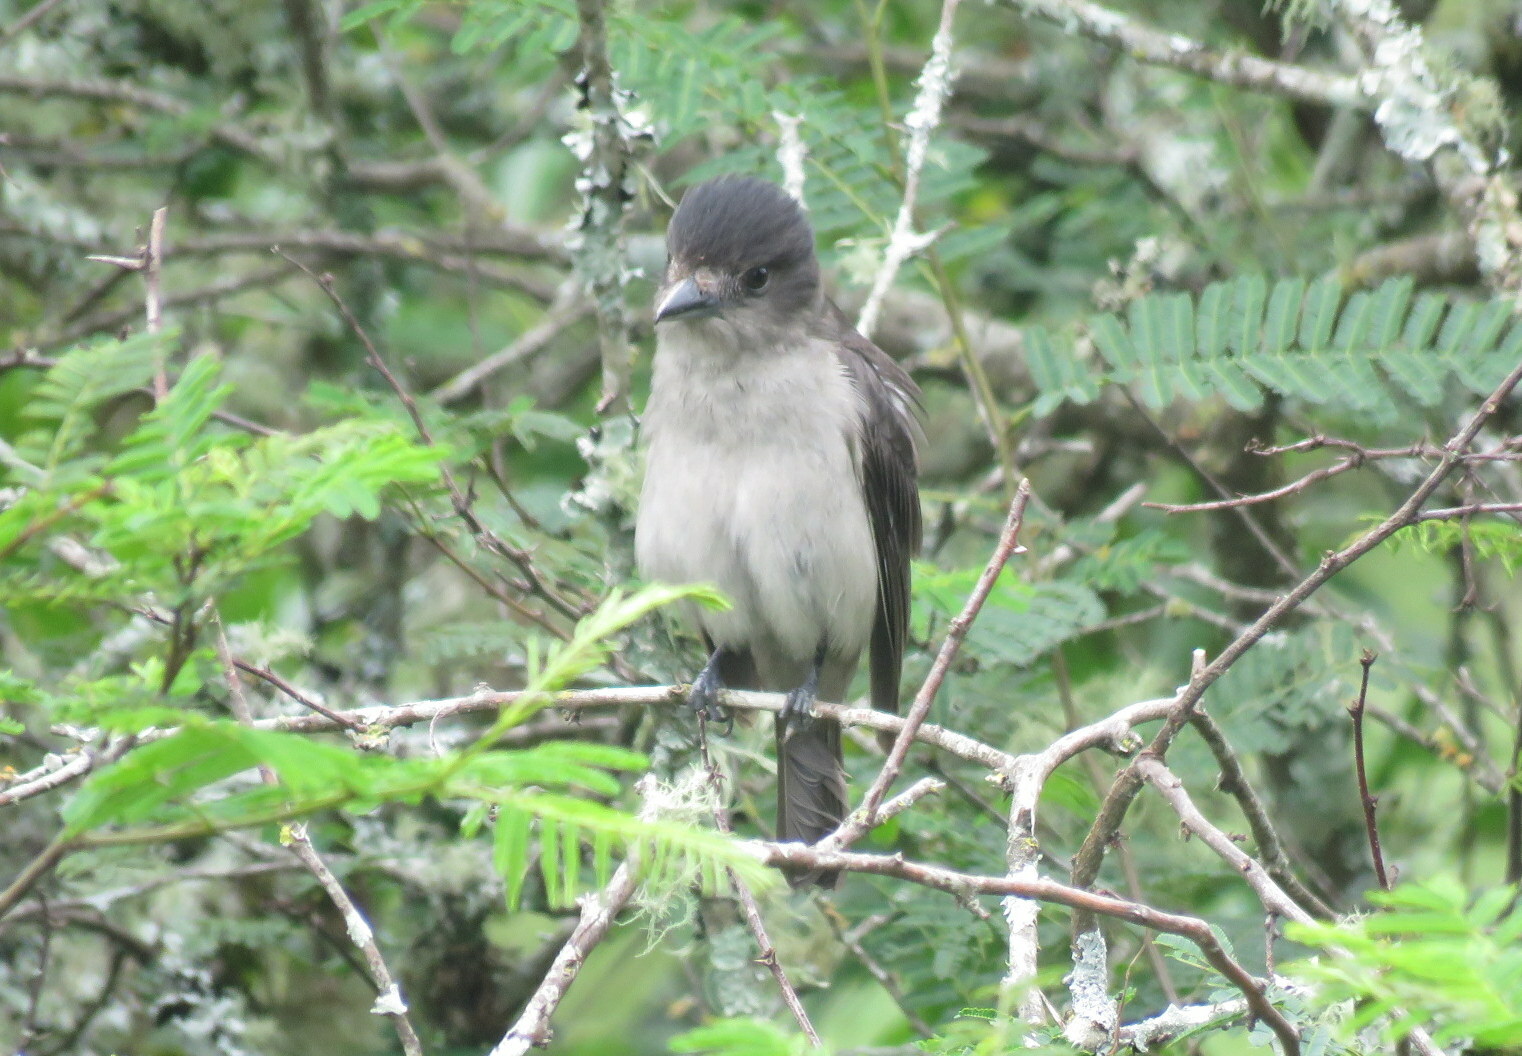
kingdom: Animalia
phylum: Chordata
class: Aves
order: Passeriformes
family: Cotingidae
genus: Pachyramphus
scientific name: Pachyramphus validus
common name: Crested becard
